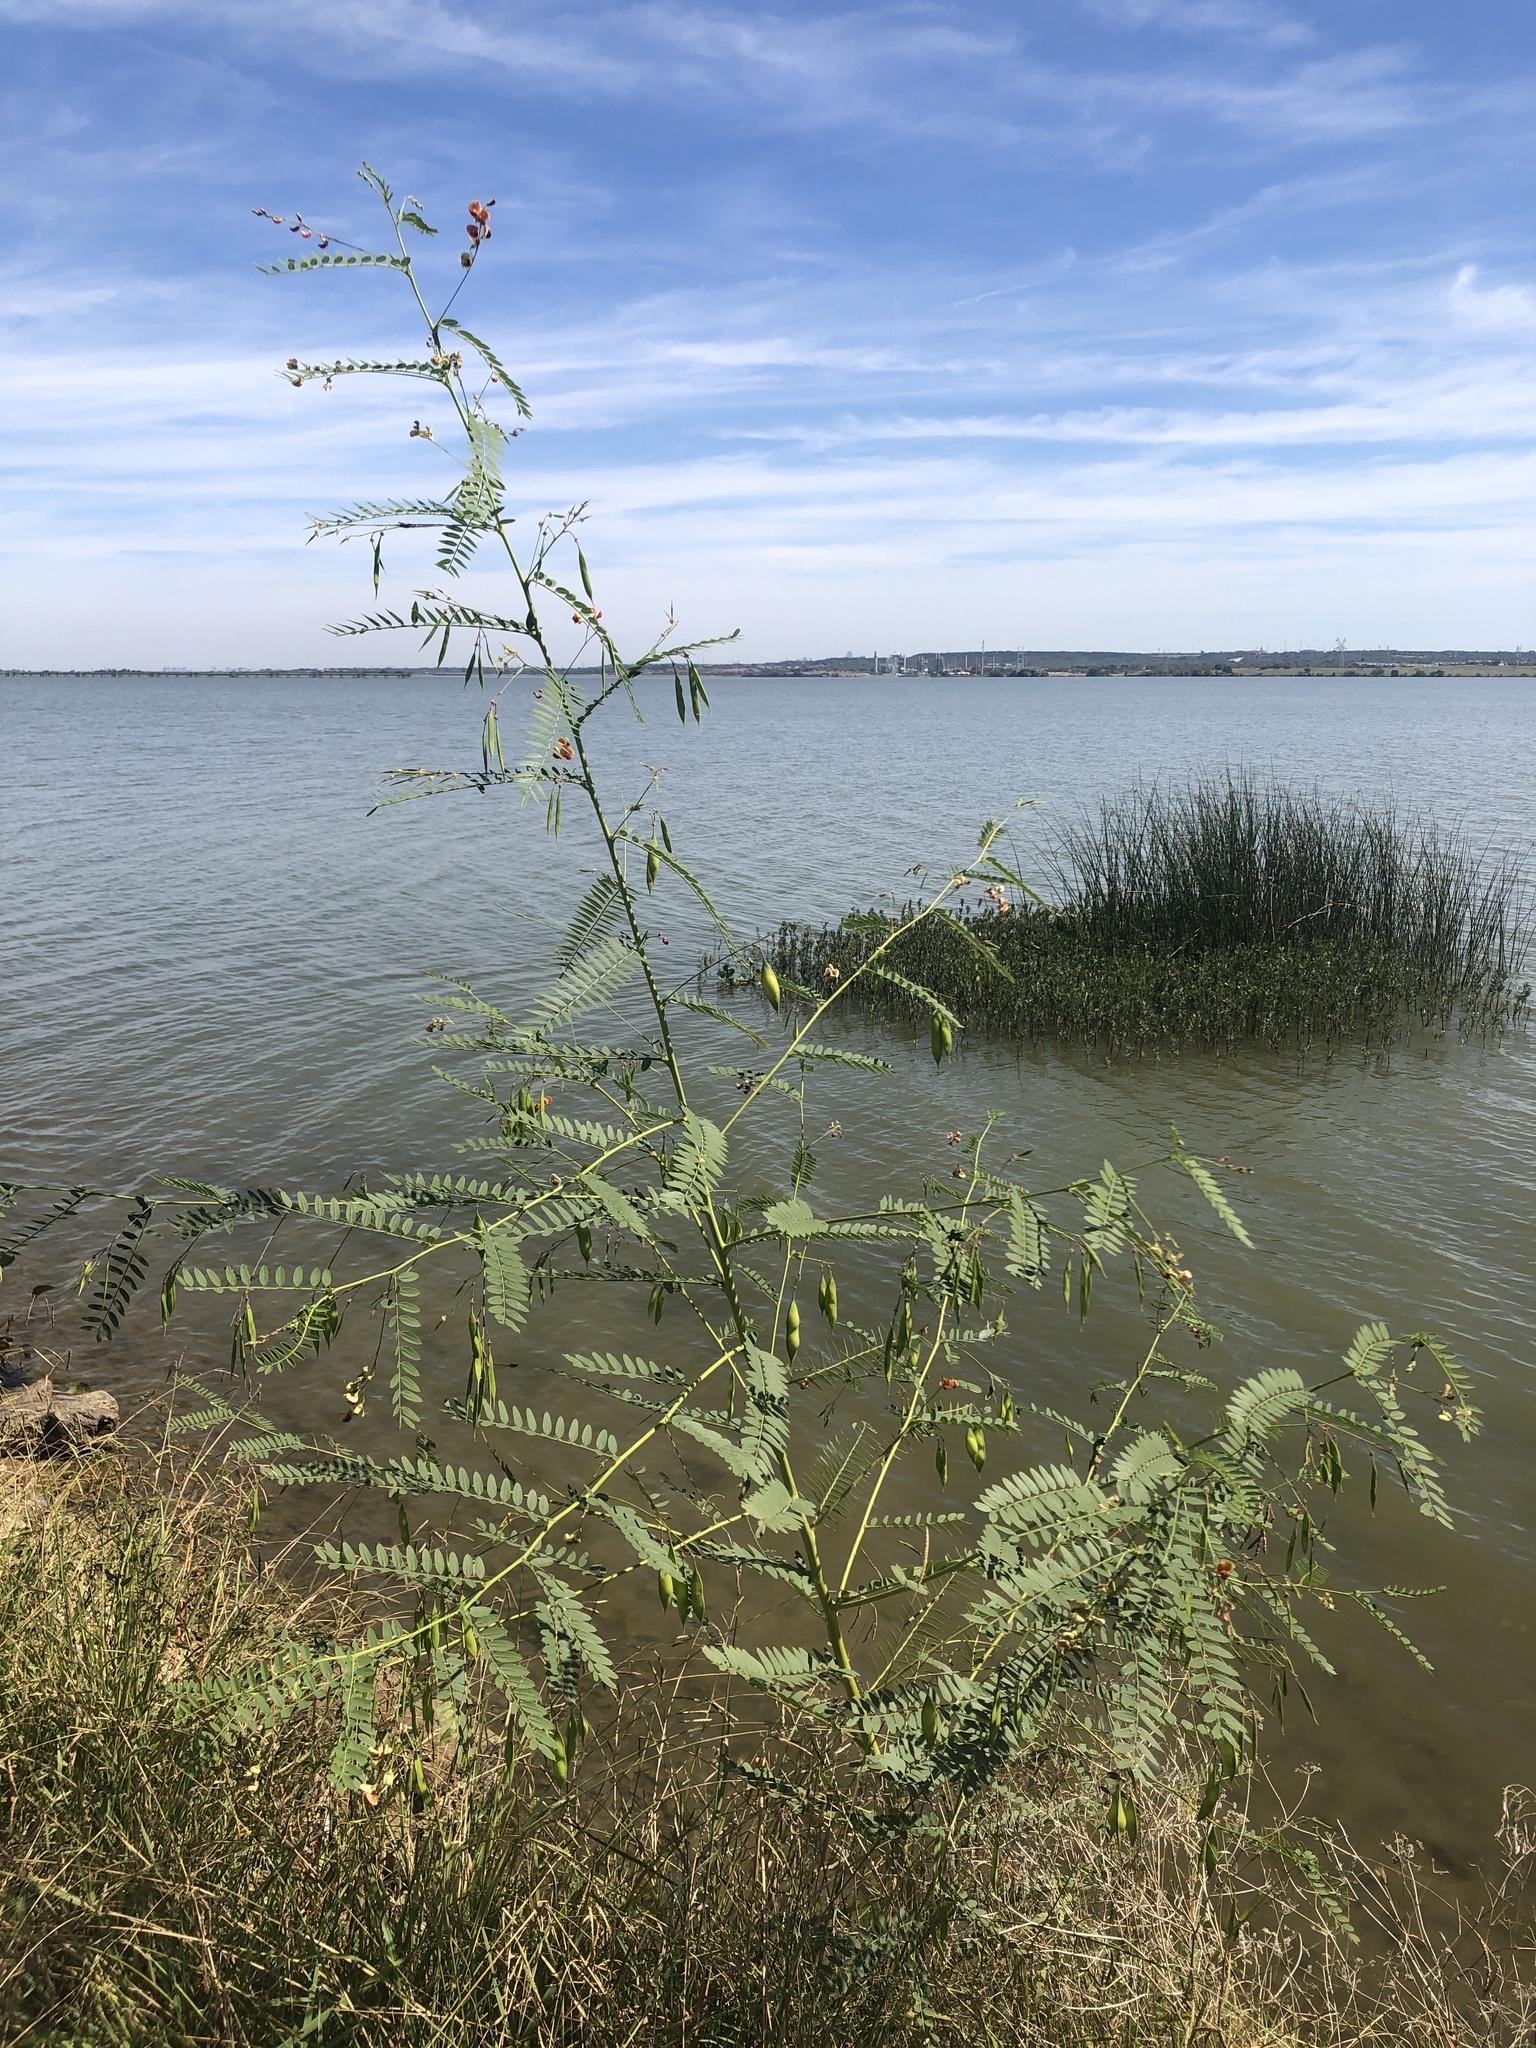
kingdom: Plantae
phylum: Tracheophyta
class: Magnoliopsida
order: Fabales
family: Fabaceae
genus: Sesbania
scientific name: Sesbania vesicaria
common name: Bagpod
